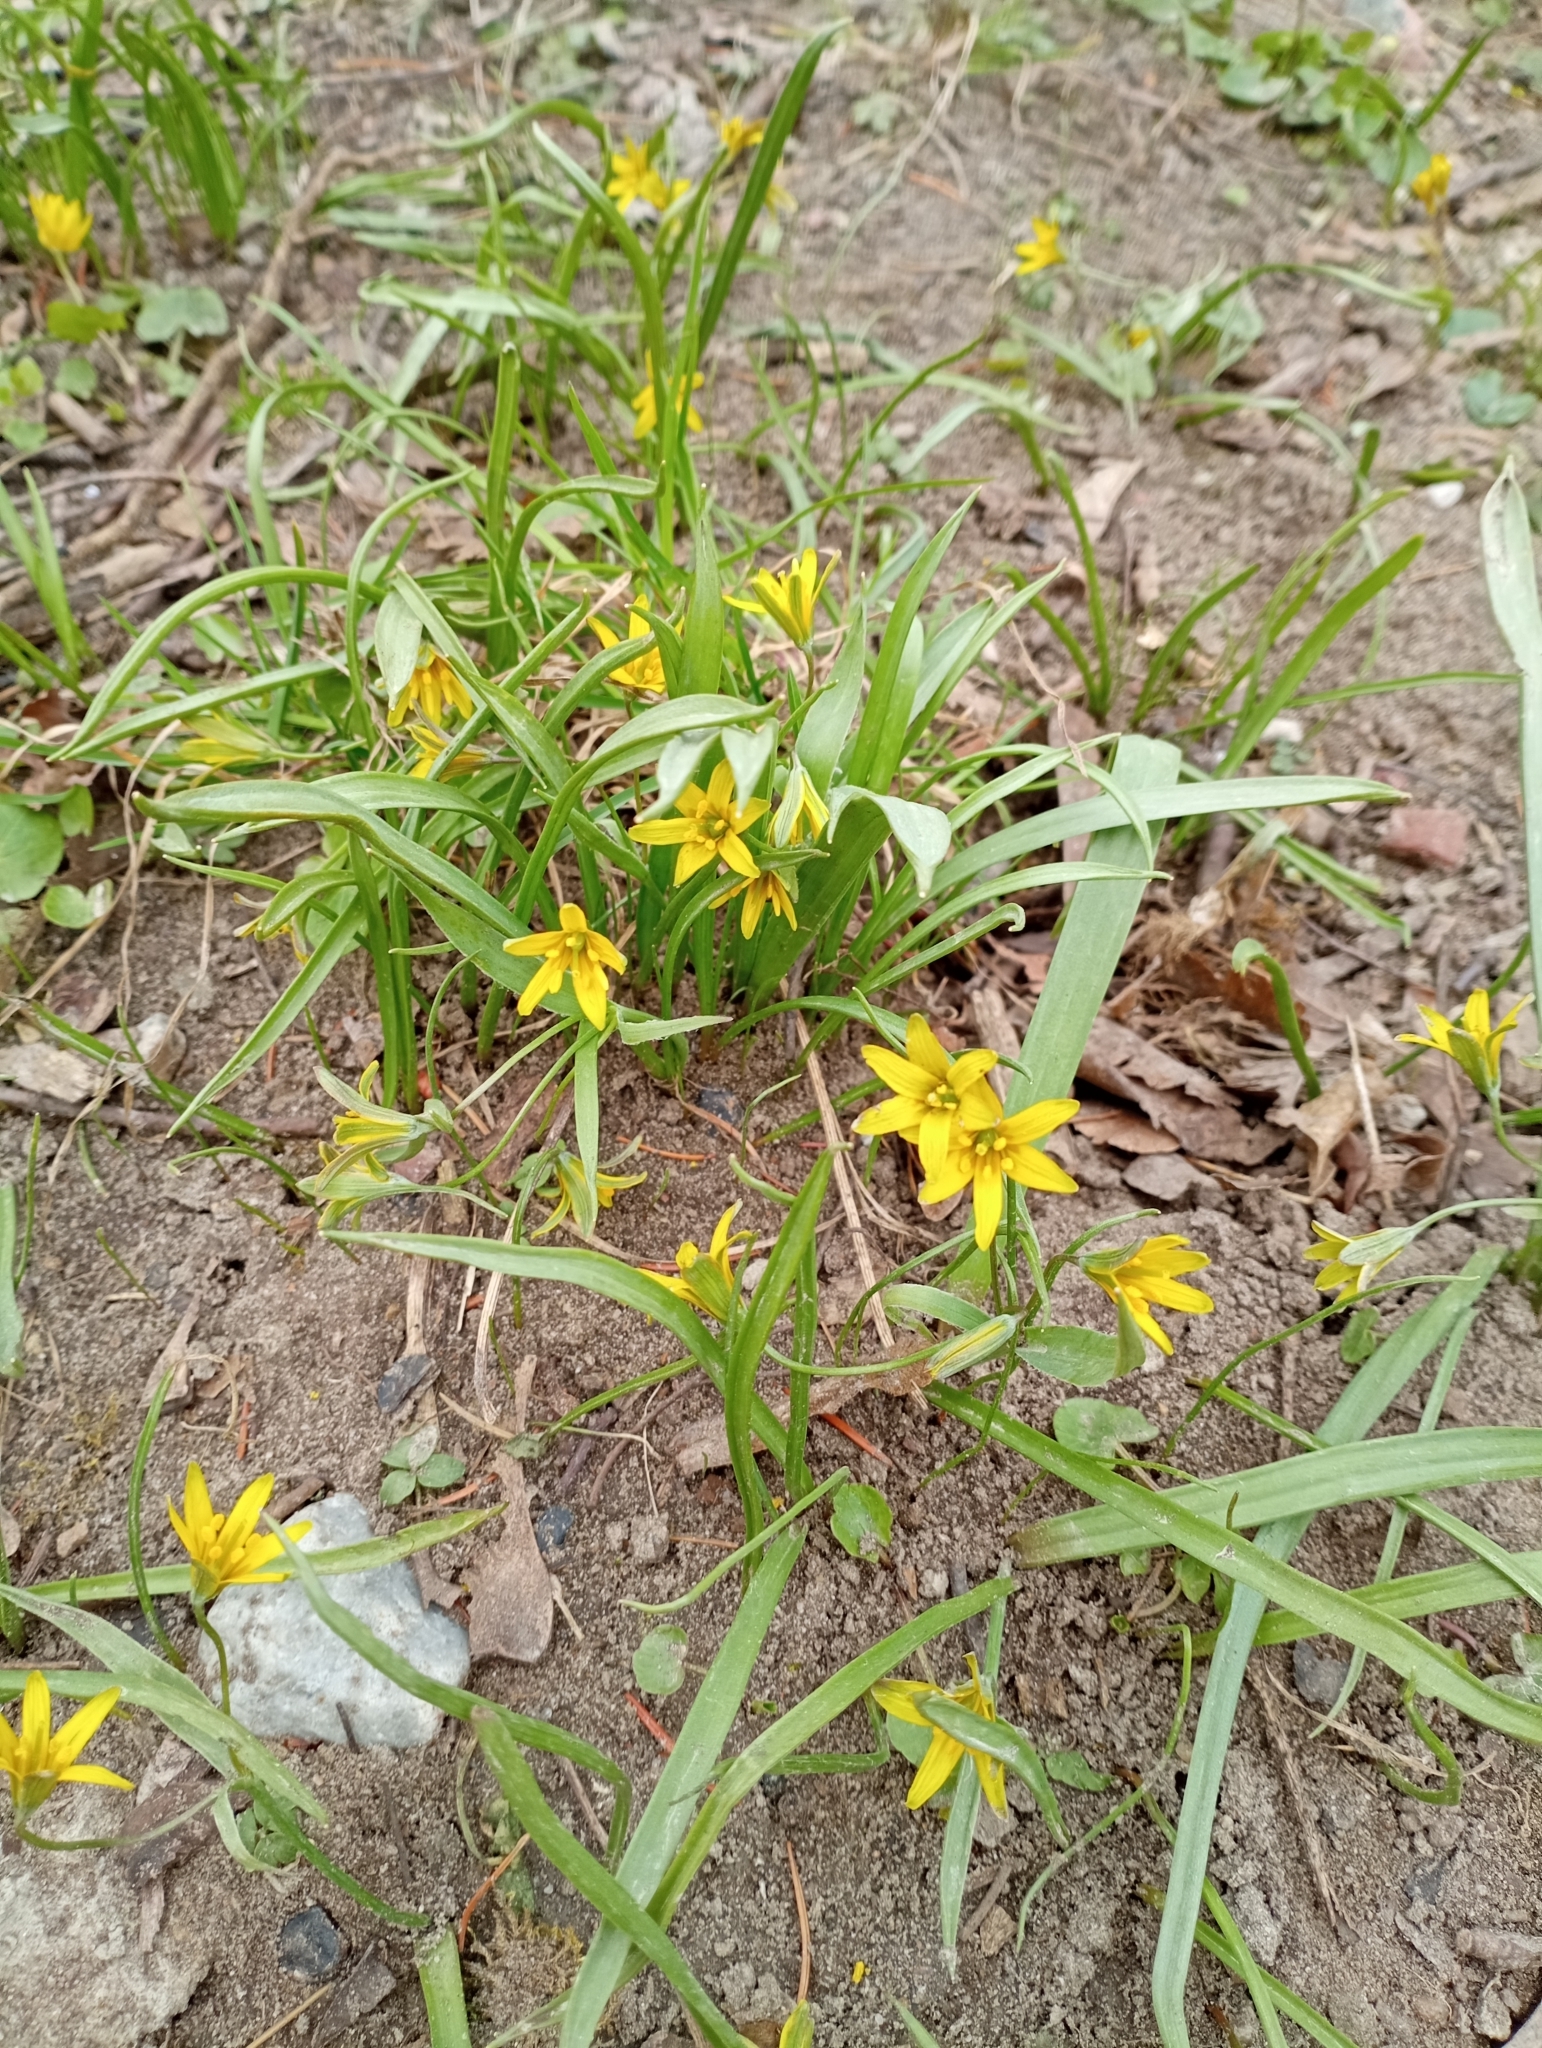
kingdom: Plantae
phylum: Tracheophyta
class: Liliopsida
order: Liliales
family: Liliaceae
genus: Gagea
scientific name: Gagea lutea
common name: Yellow star-of-bethlehem
